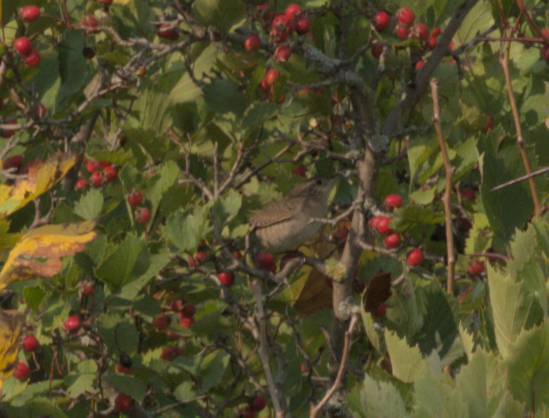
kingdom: Animalia
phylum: Chordata
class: Aves
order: Passeriformes
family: Troglodytidae
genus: Troglodytes
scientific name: Troglodytes aedon
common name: House wren
